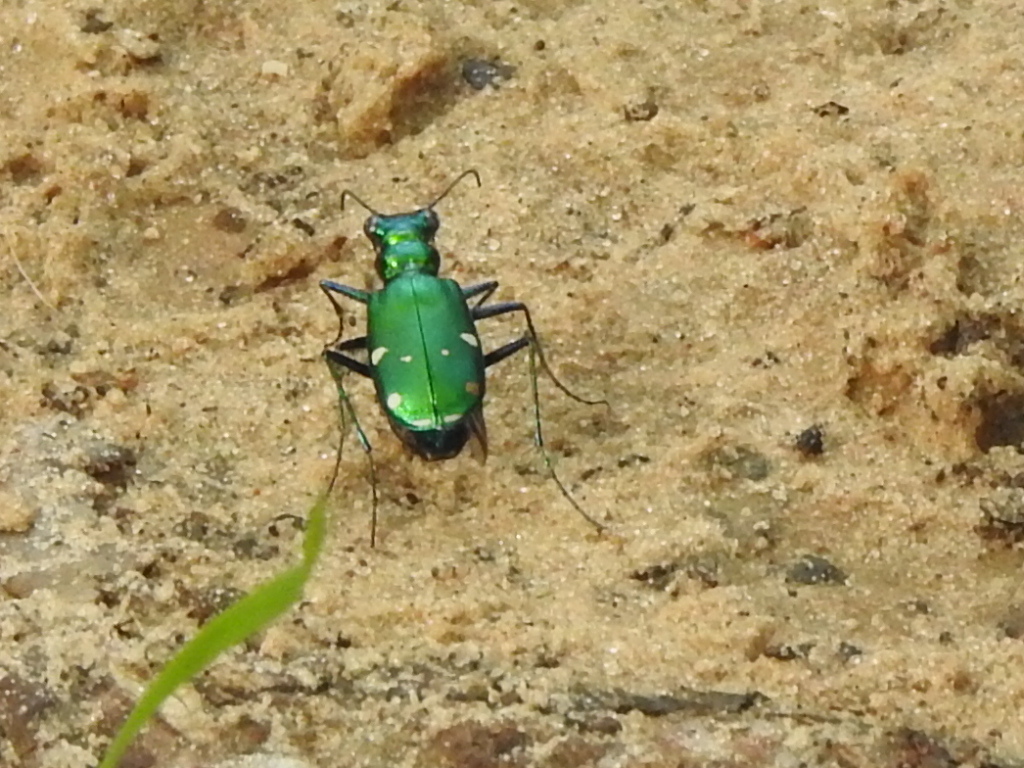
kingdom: Animalia
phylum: Arthropoda
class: Insecta
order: Coleoptera
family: Carabidae
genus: Cicindela
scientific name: Cicindela sexguttata
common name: Six-spotted tiger beetle
